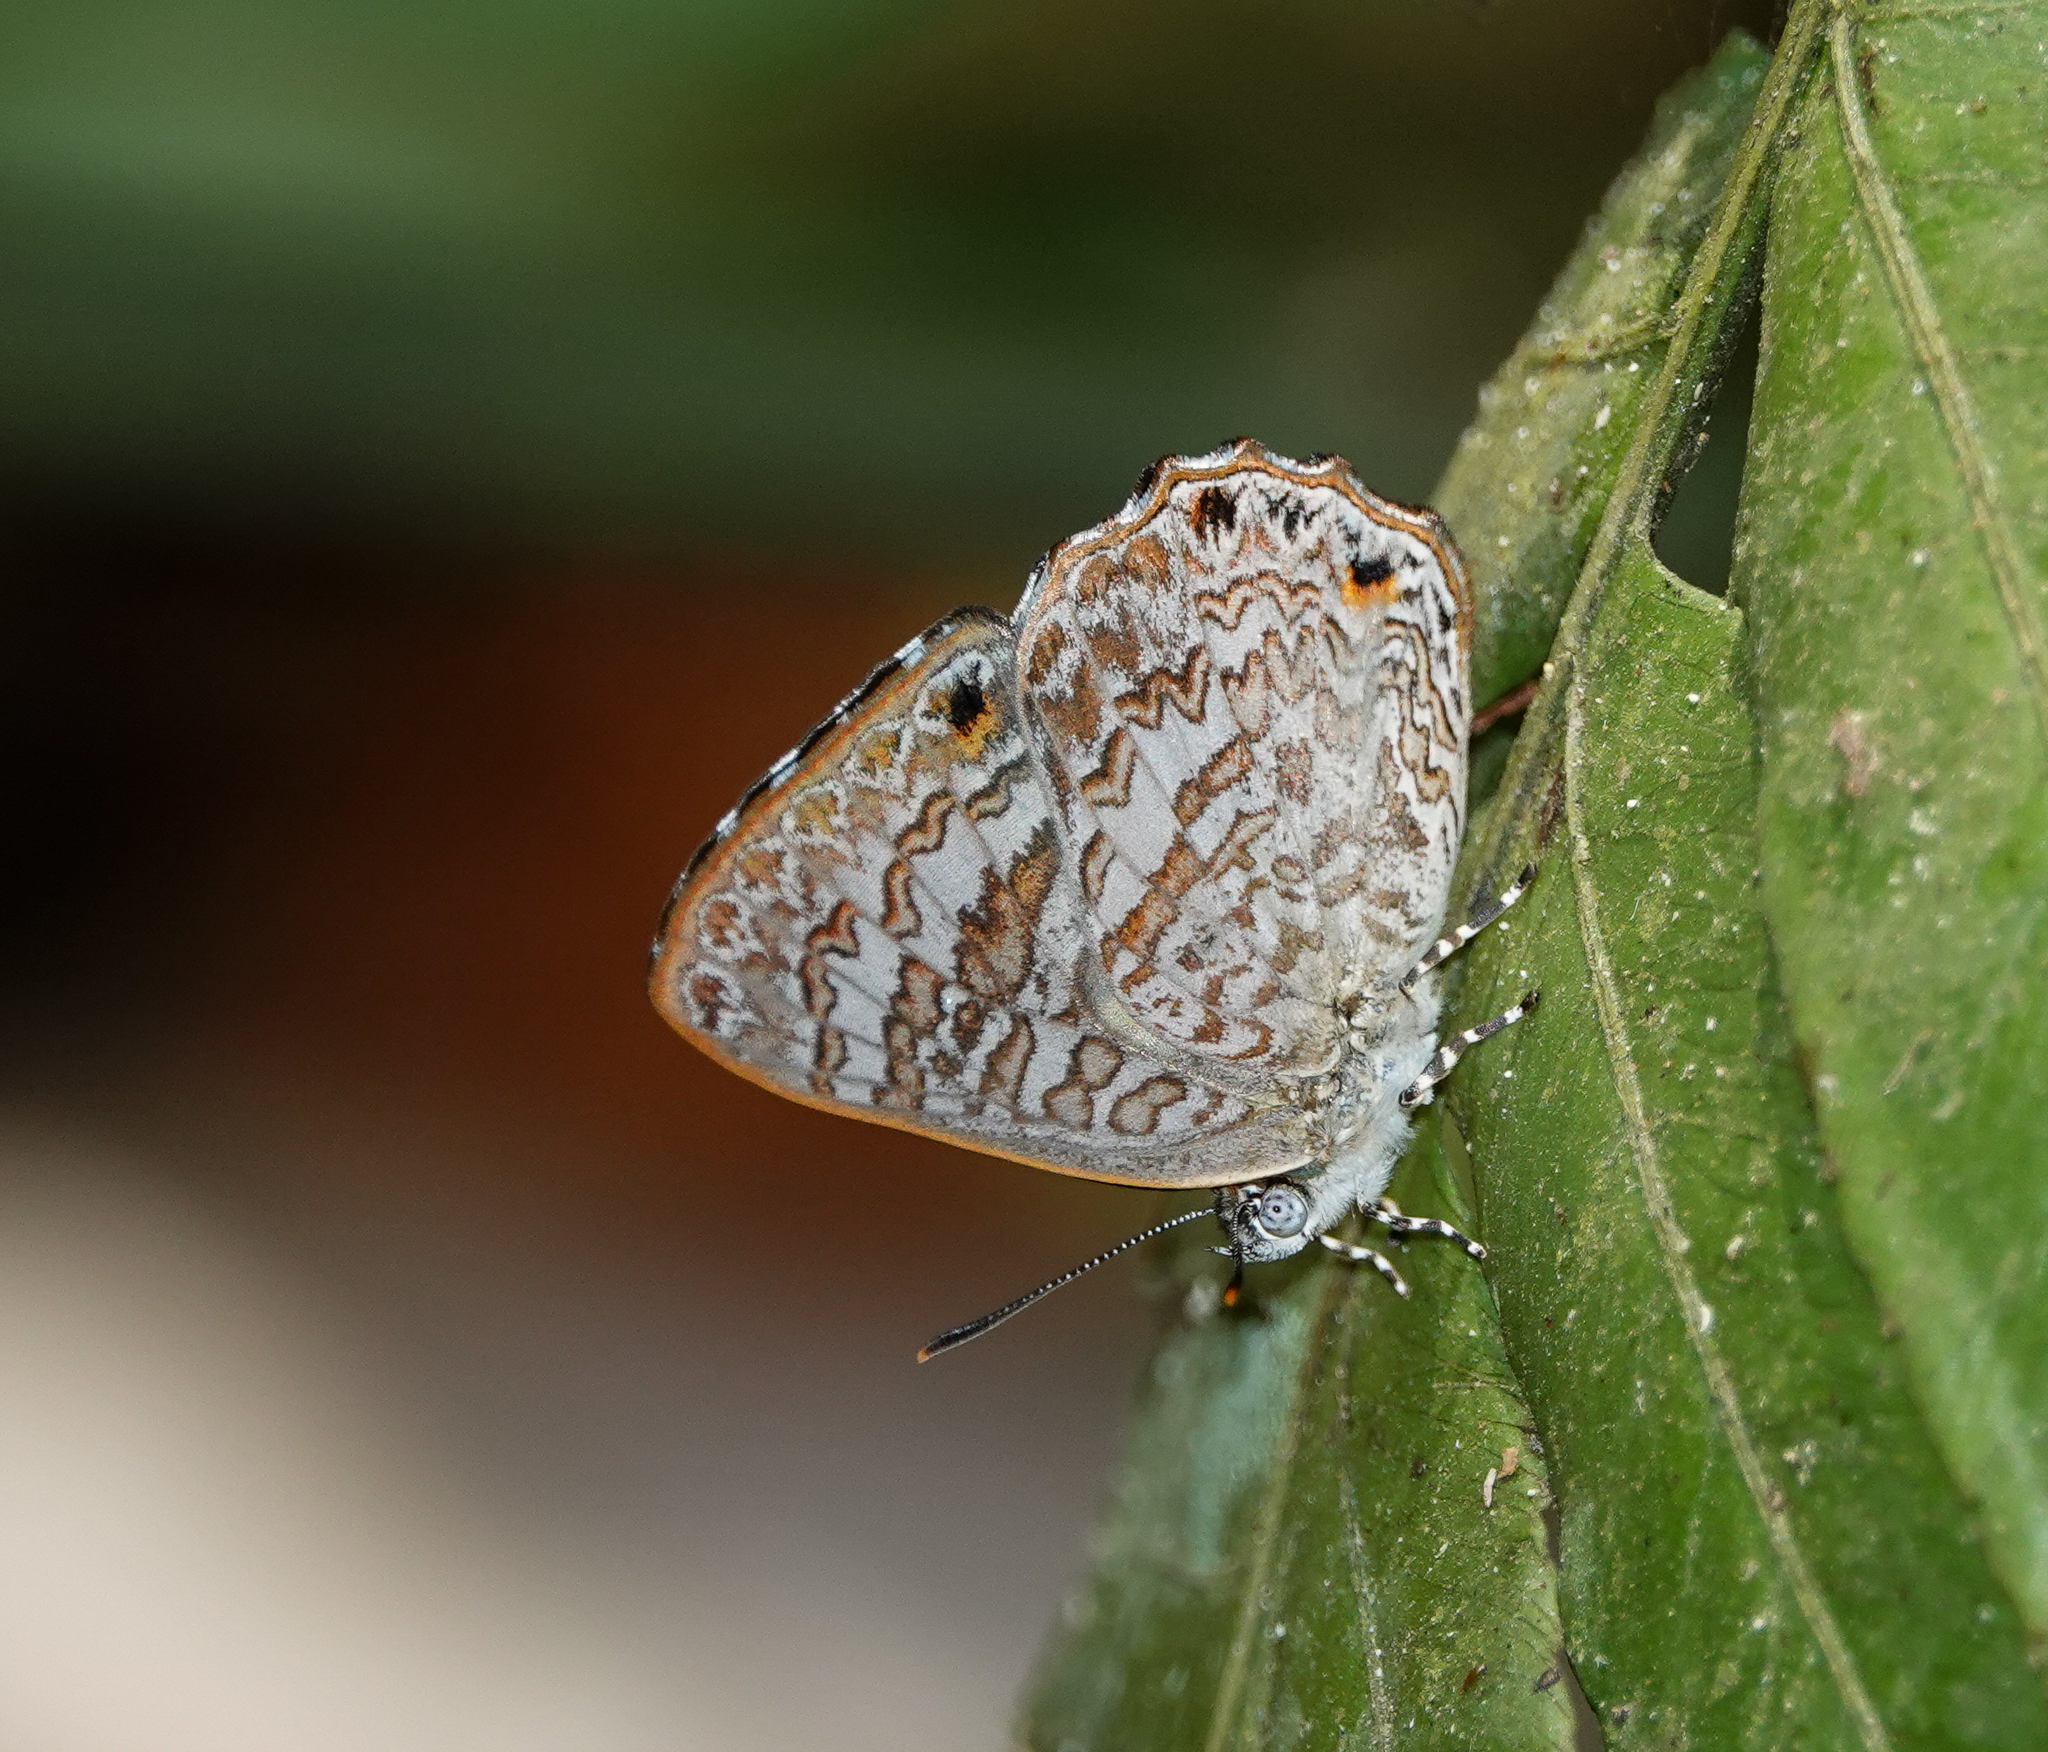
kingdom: Animalia
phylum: Arthropoda
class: Insecta
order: Lepidoptera
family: Lycaenidae
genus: Poritia
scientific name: Poritia hewitsoni
